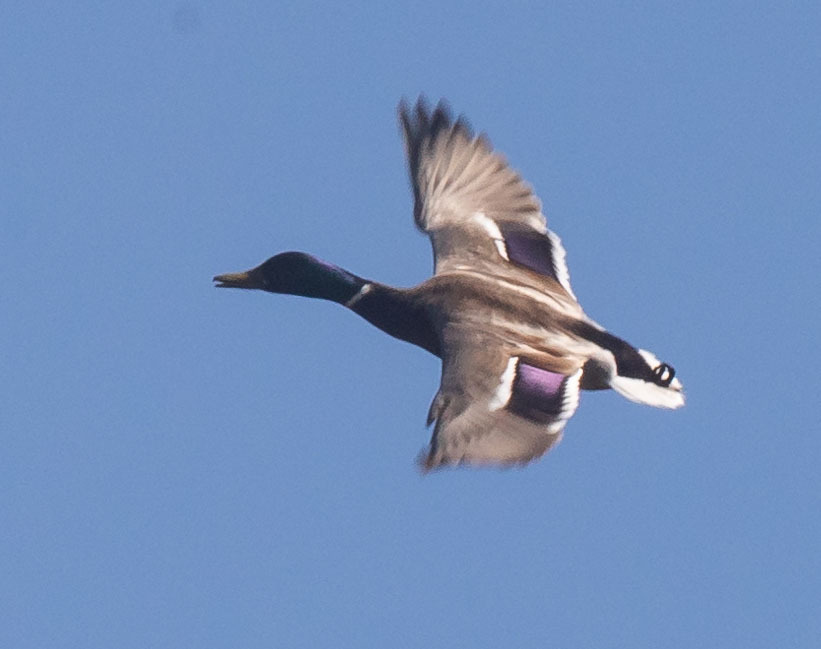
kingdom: Animalia
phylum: Chordata
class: Aves
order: Anseriformes
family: Anatidae
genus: Anas
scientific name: Anas platyrhynchos
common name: Mallard
